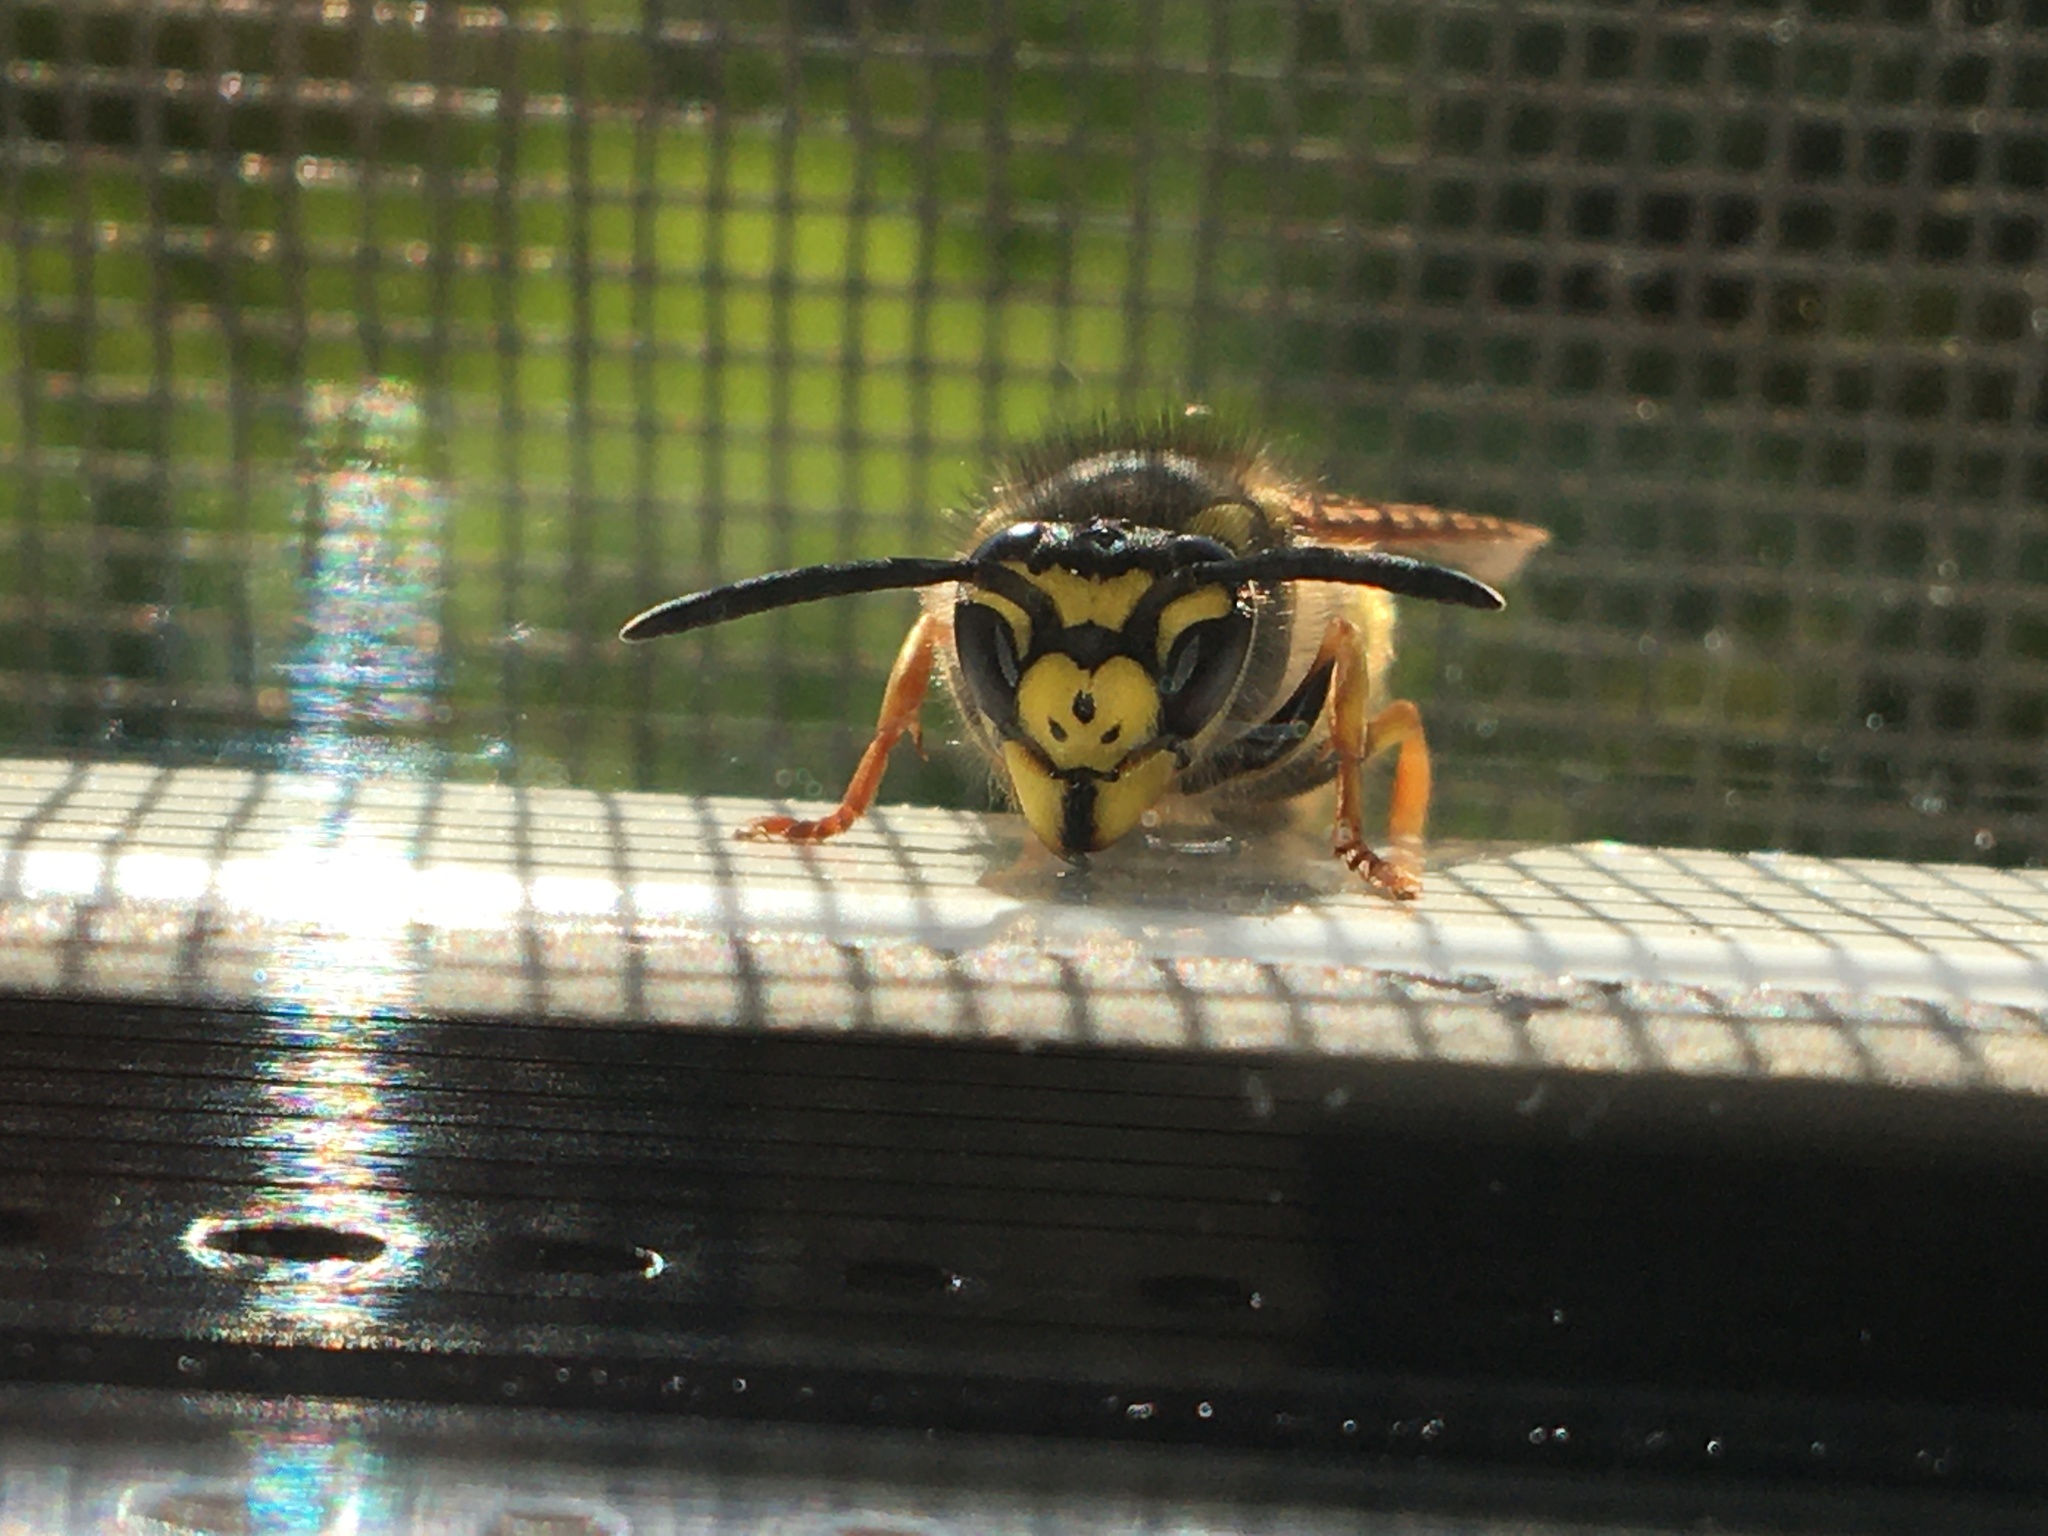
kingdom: Animalia
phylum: Arthropoda
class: Insecta
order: Hymenoptera
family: Vespidae
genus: Vespula
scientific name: Vespula germanica
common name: German wasp
